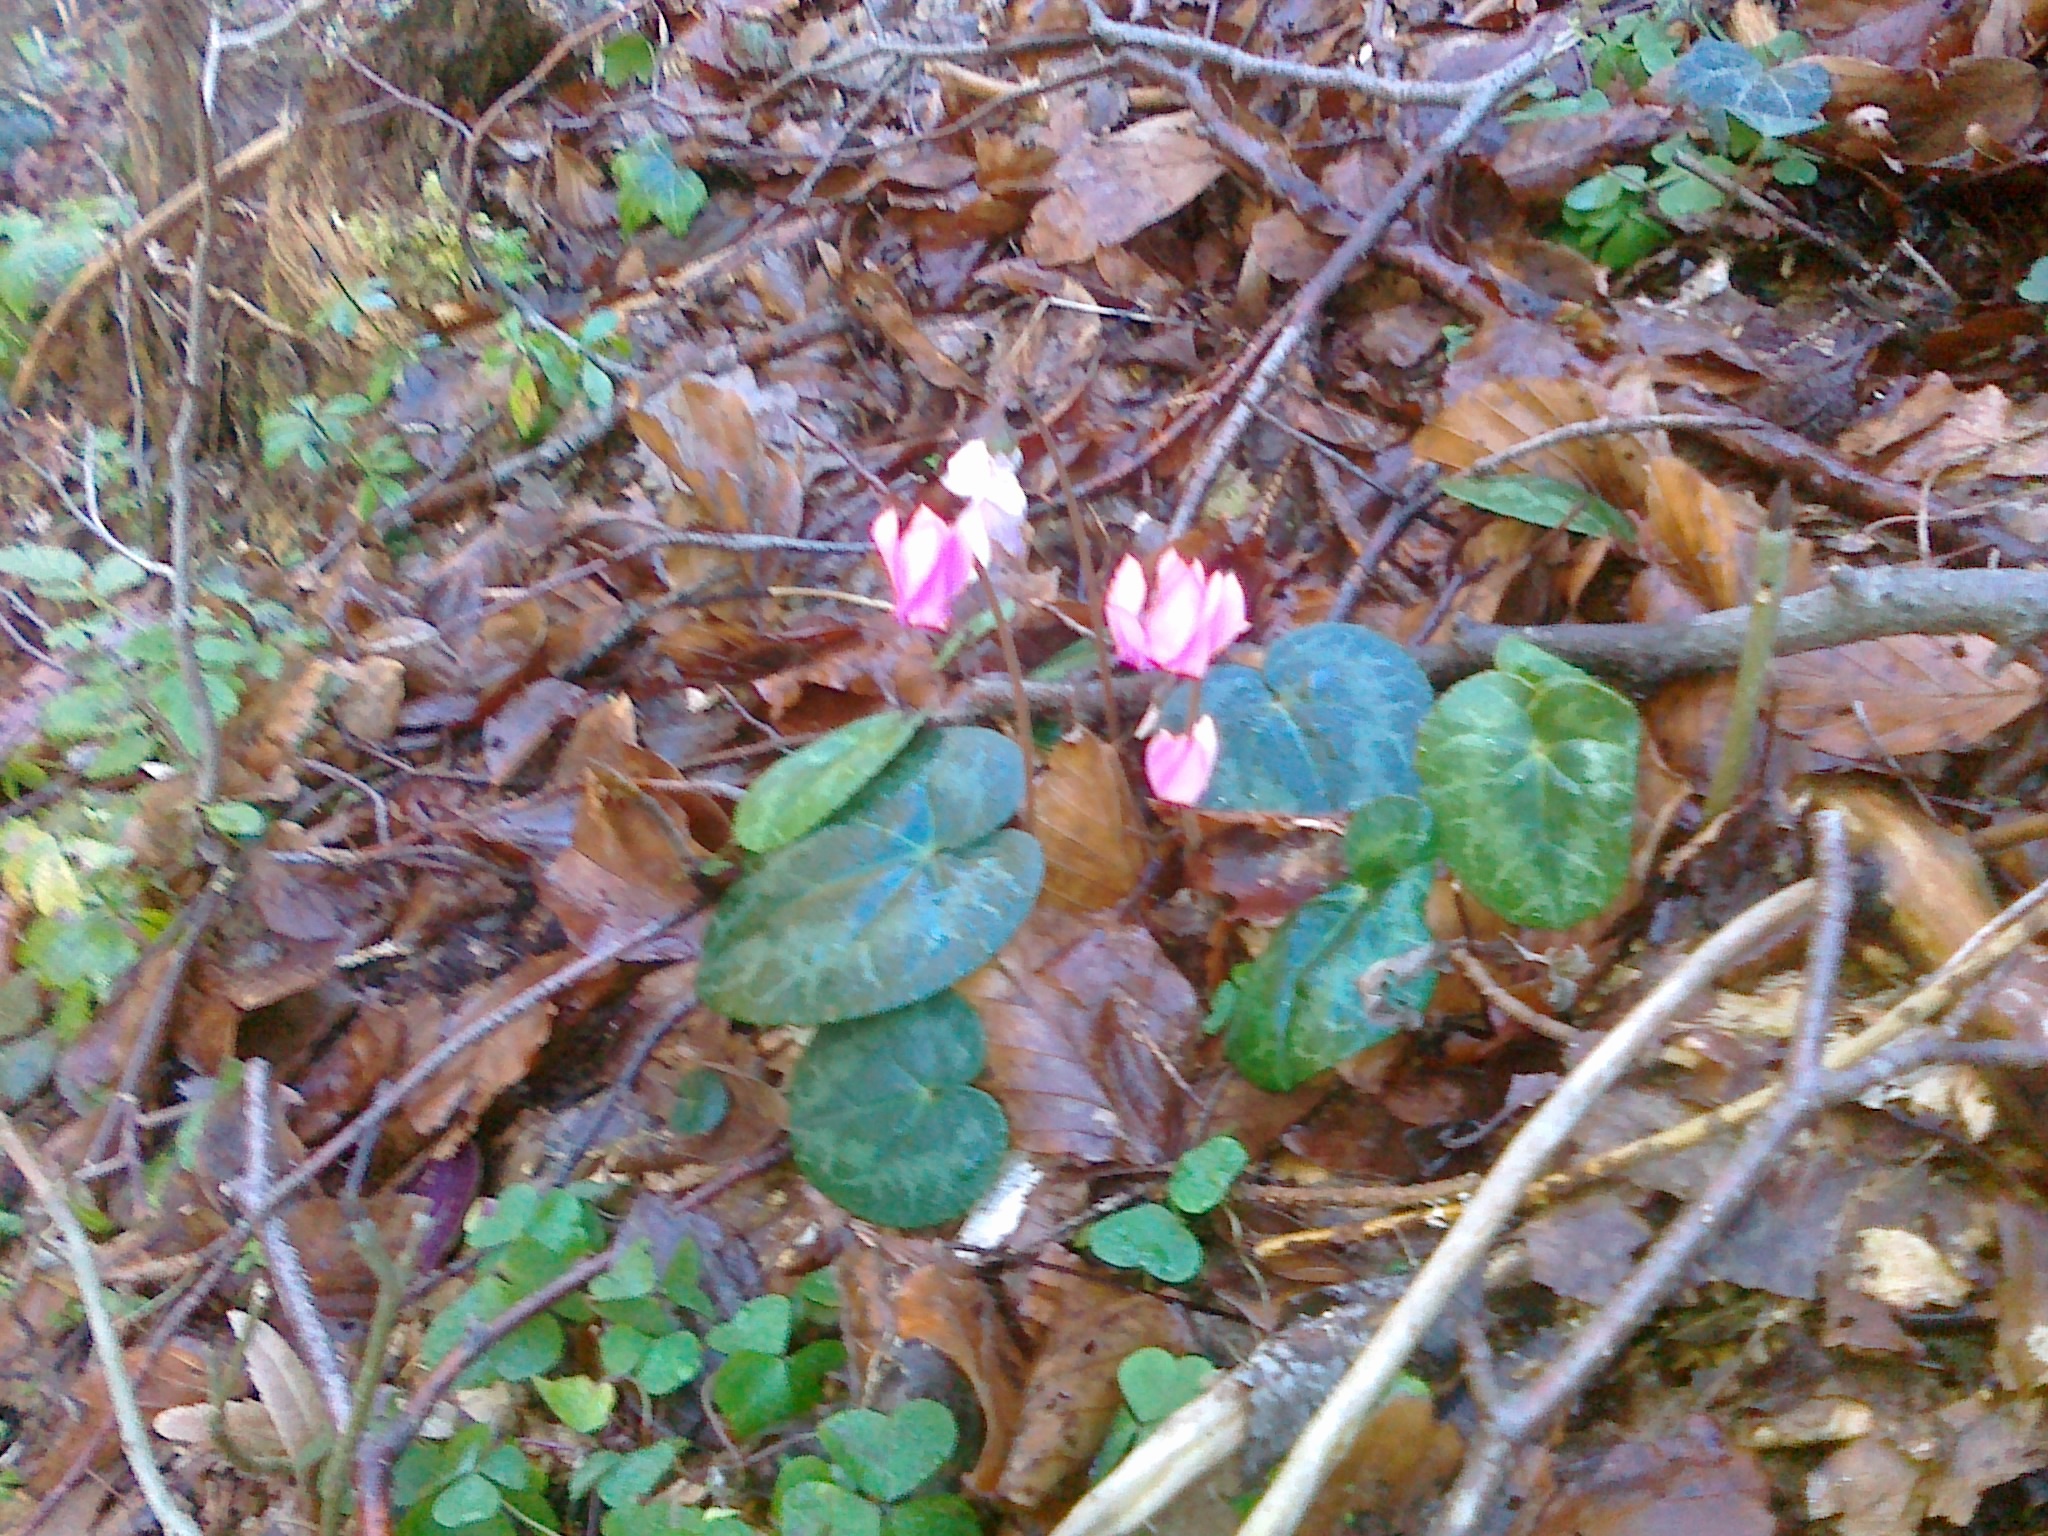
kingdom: Plantae
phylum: Tracheophyta
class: Magnoliopsida
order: Ericales
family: Primulaceae
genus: Cyclamen
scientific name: Cyclamen purpurascens
